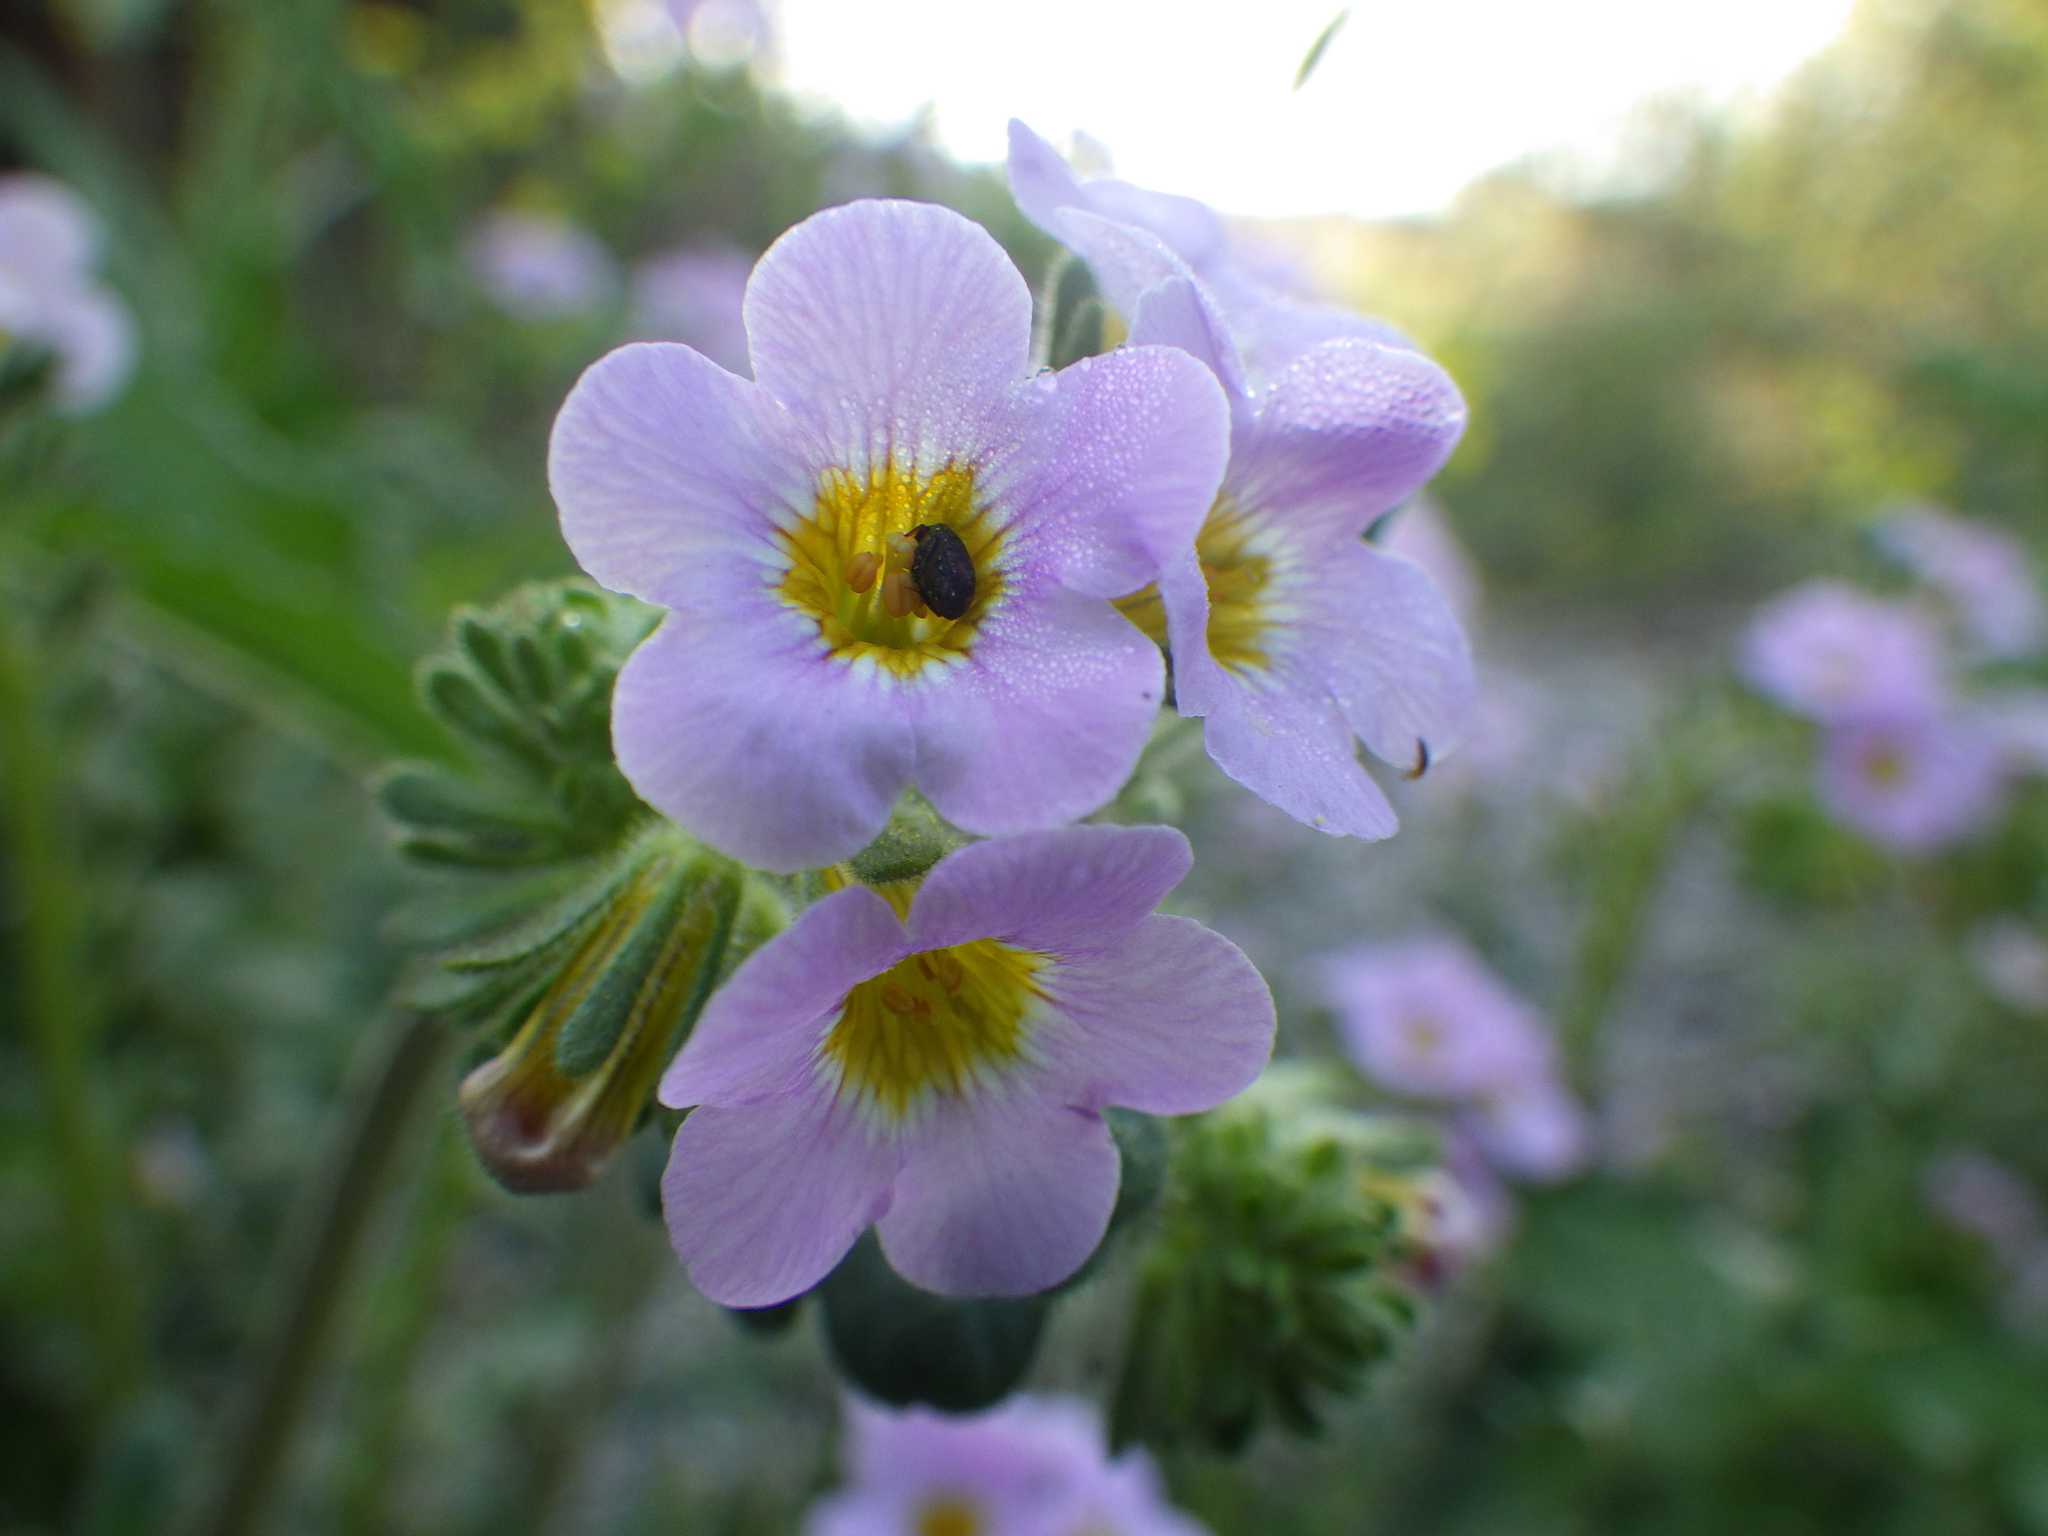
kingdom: Plantae
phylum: Tracheophyta
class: Magnoliopsida
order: Boraginales
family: Hydrophyllaceae
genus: Phacelia
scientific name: Phacelia brachyloba
